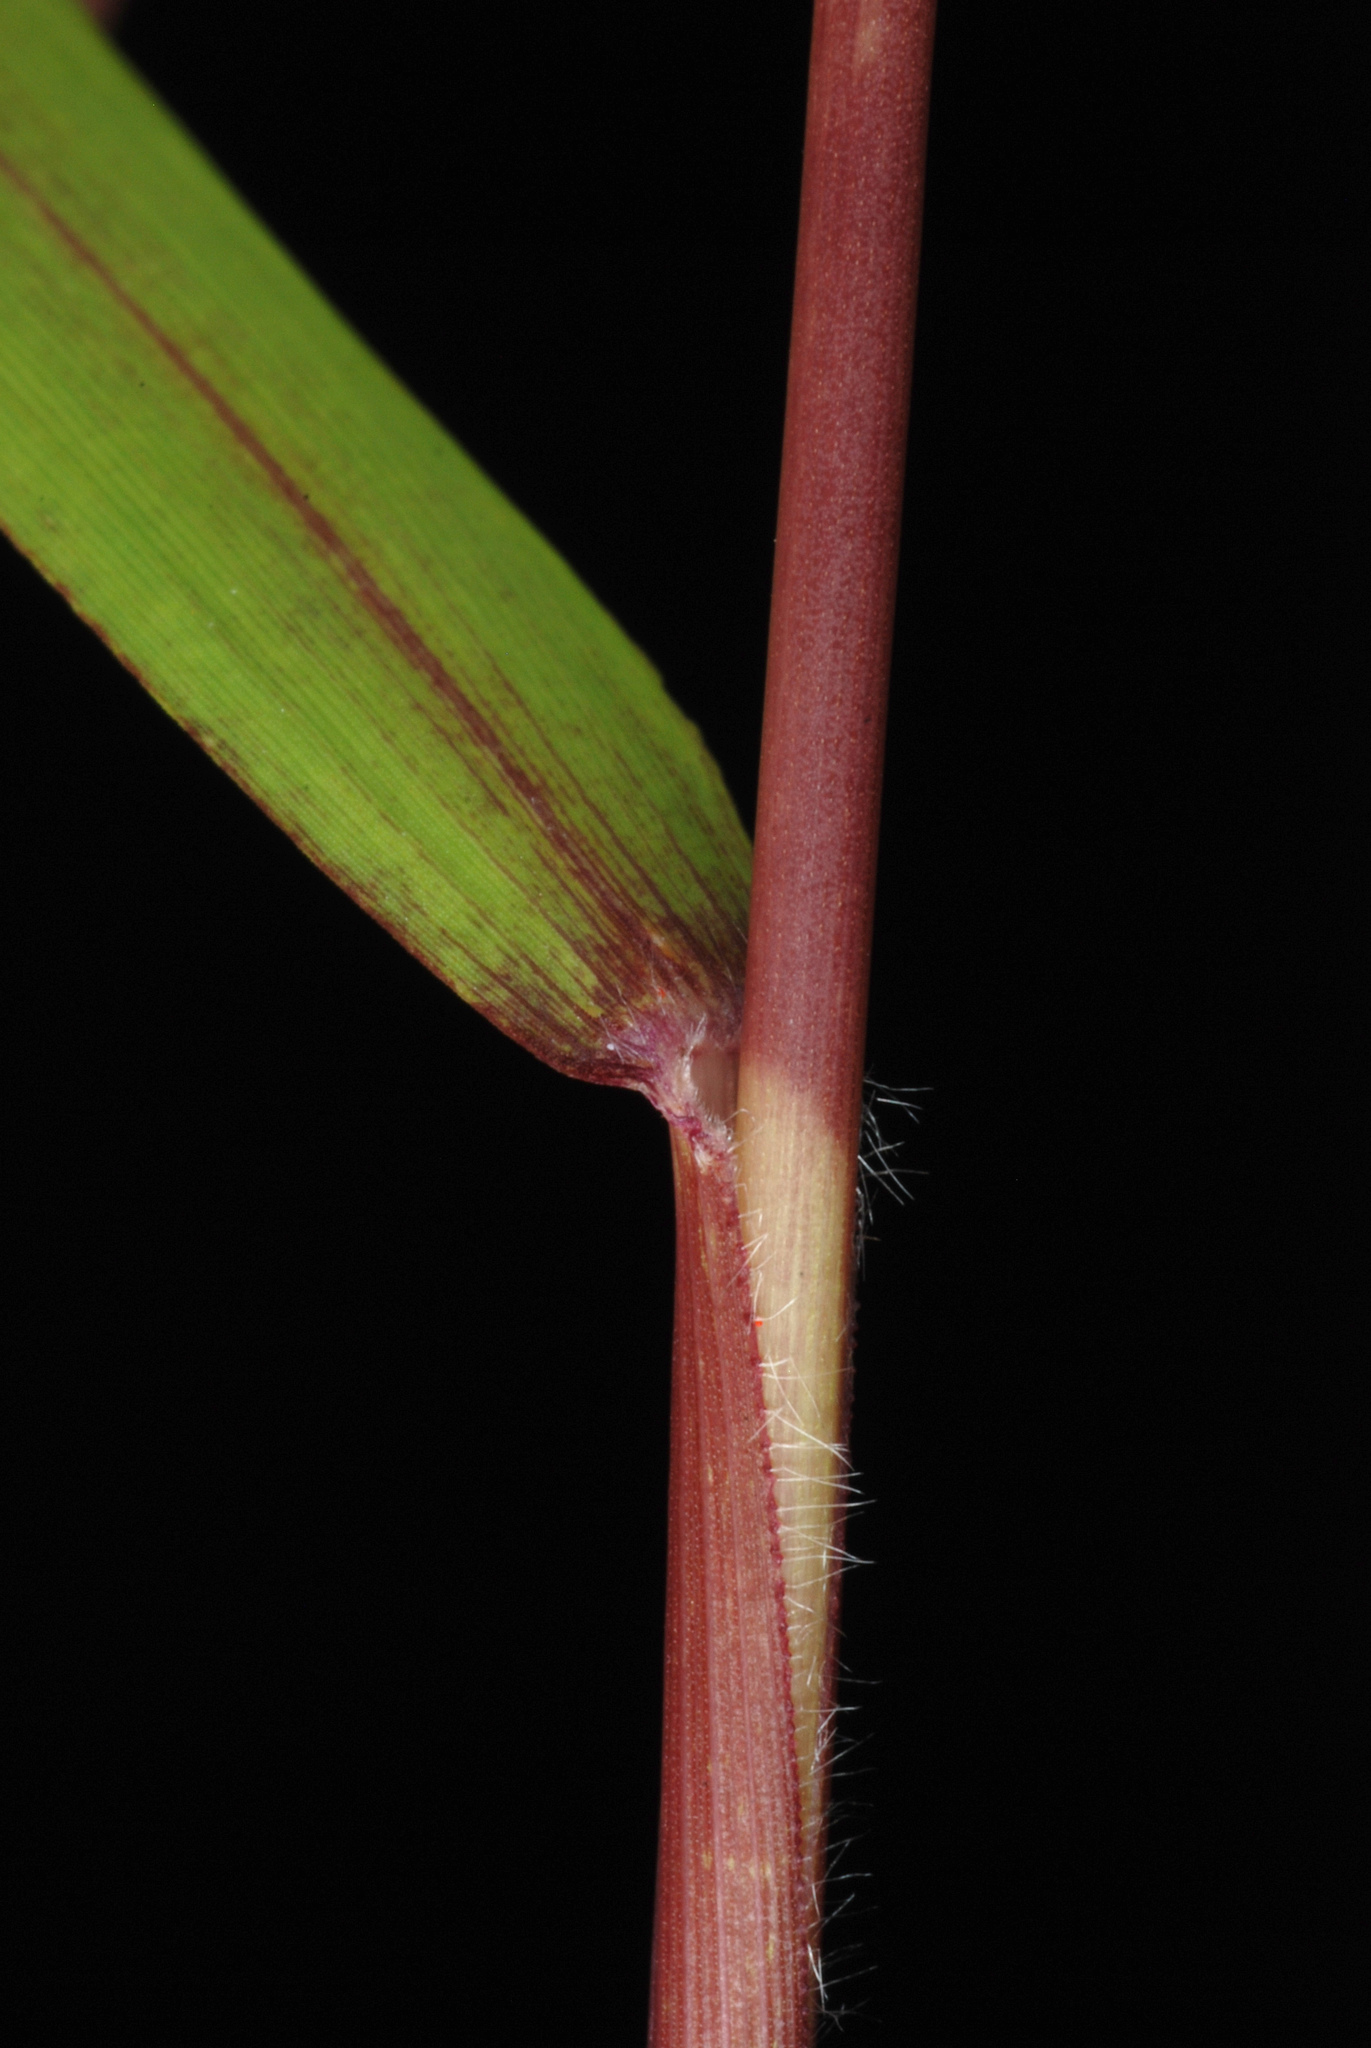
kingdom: Plantae
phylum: Tracheophyta
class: Liliopsida
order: Poales
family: Poaceae
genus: Kellochloa
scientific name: Kellochloa verrucosa
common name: Warty panic grass
